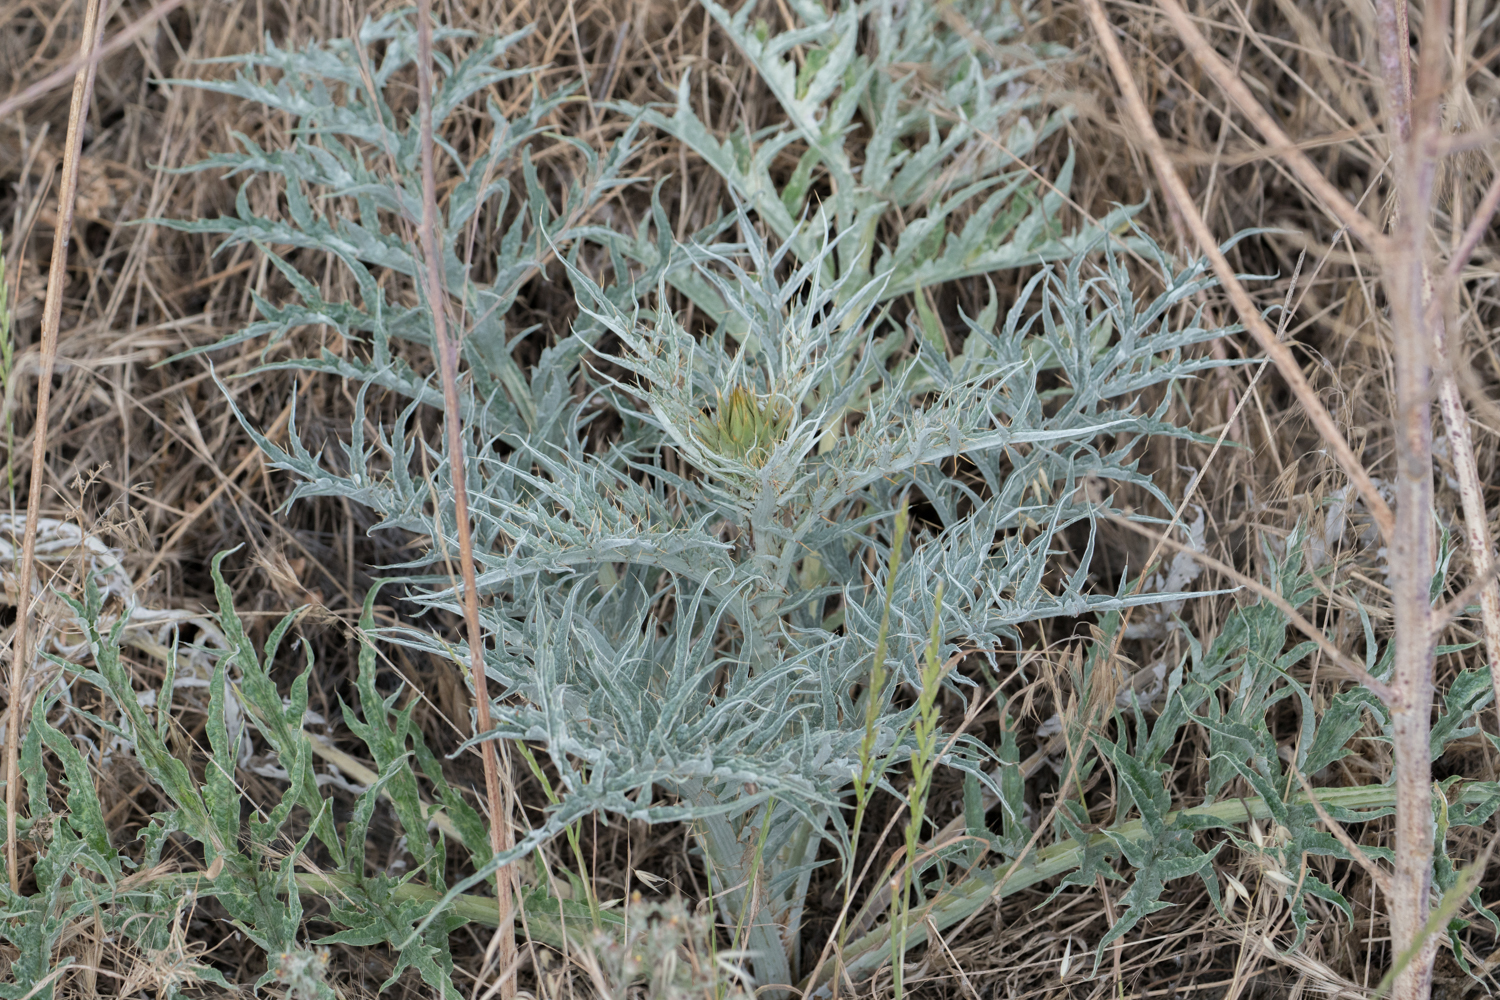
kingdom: Plantae
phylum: Tracheophyta
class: Magnoliopsida
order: Asterales
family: Asteraceae
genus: Cynara
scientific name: Cynara cardunculus
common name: Globe artichoke
